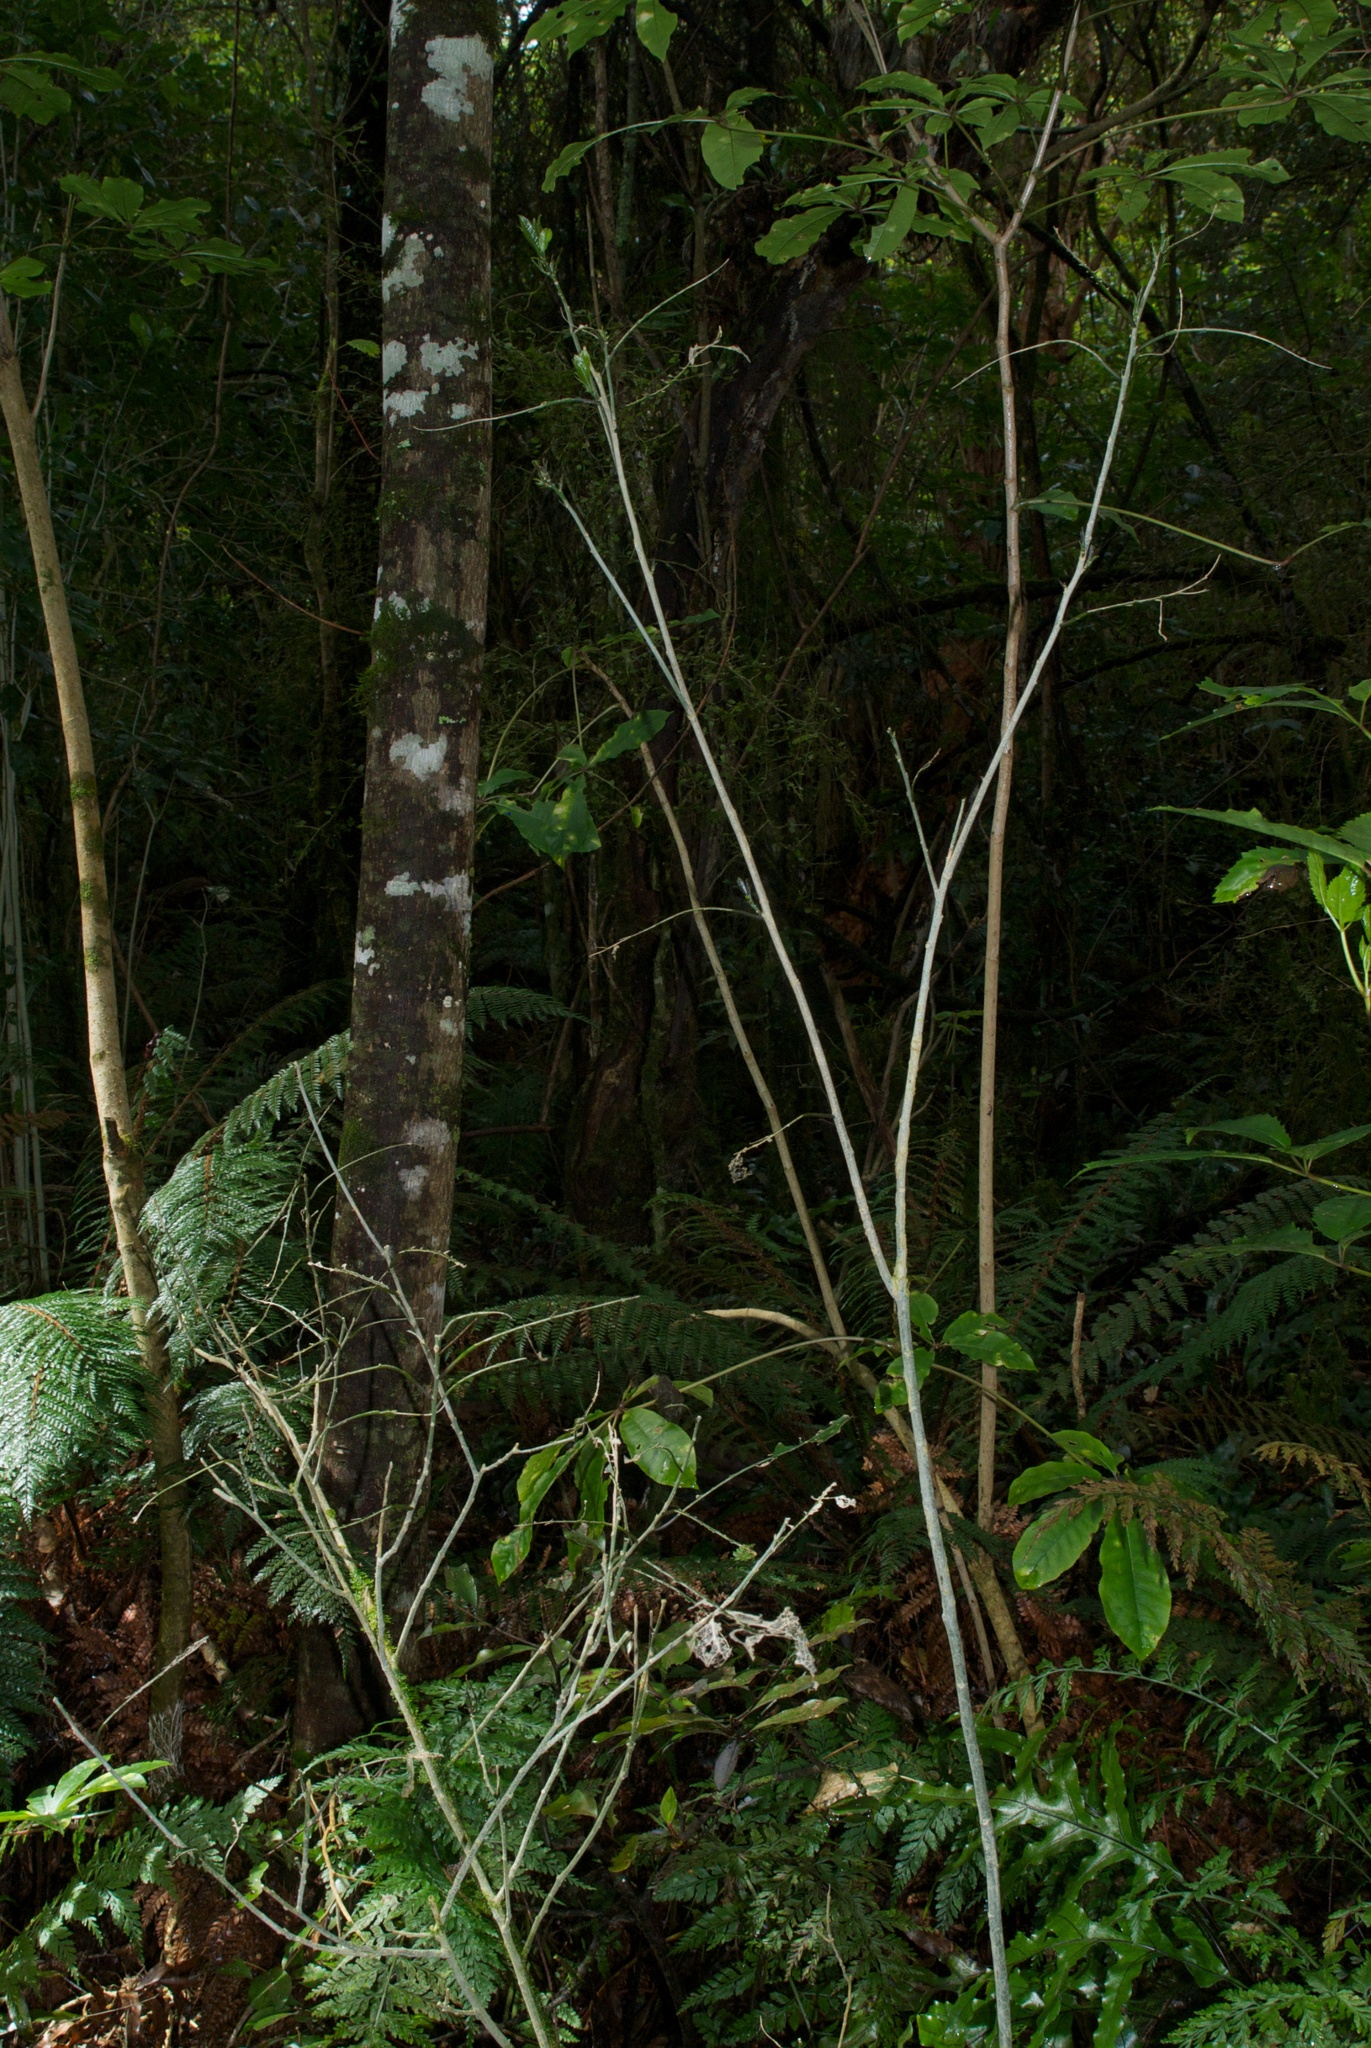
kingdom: Plantae
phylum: Tracheophyta
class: Magnoliopsida
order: Malpighiales
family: Violaceae
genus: Melicytus
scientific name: Melicytus ramiflorus
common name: Mahoe
